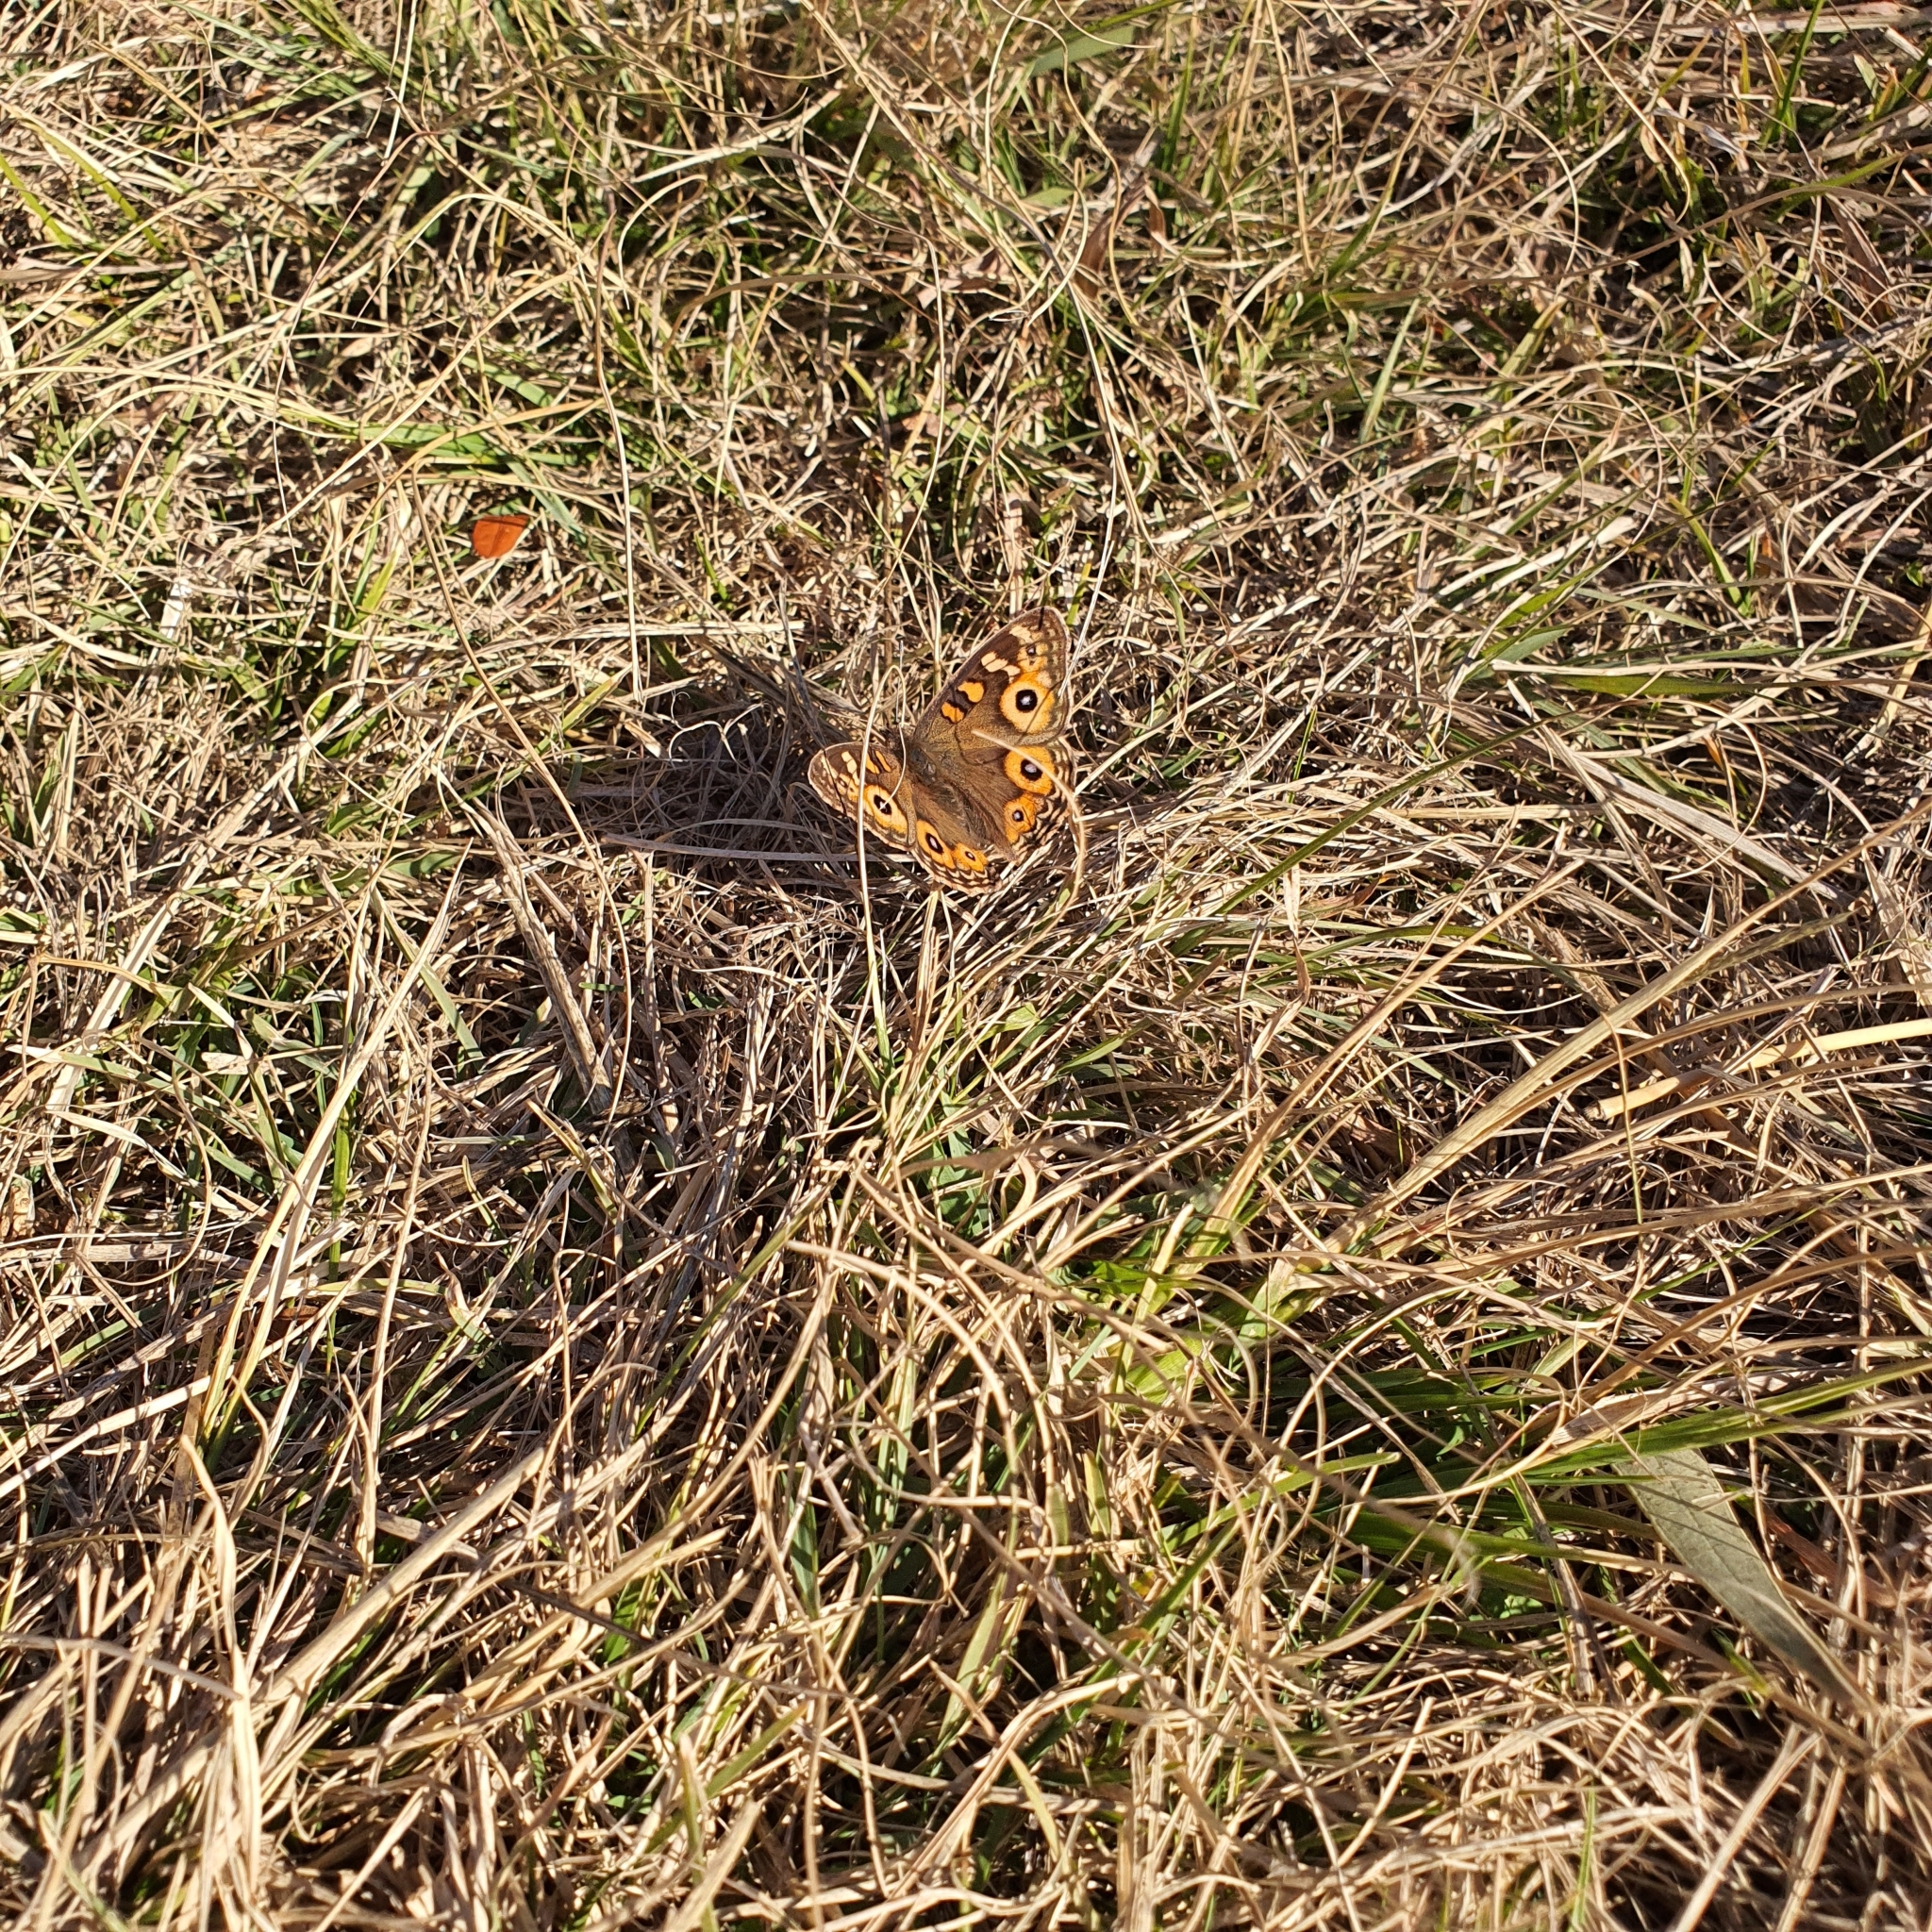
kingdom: Animalia
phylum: Arthropoda
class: Insecta
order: Lepidoptera
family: Nymphalidae
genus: Junonia
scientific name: Junonia villida
